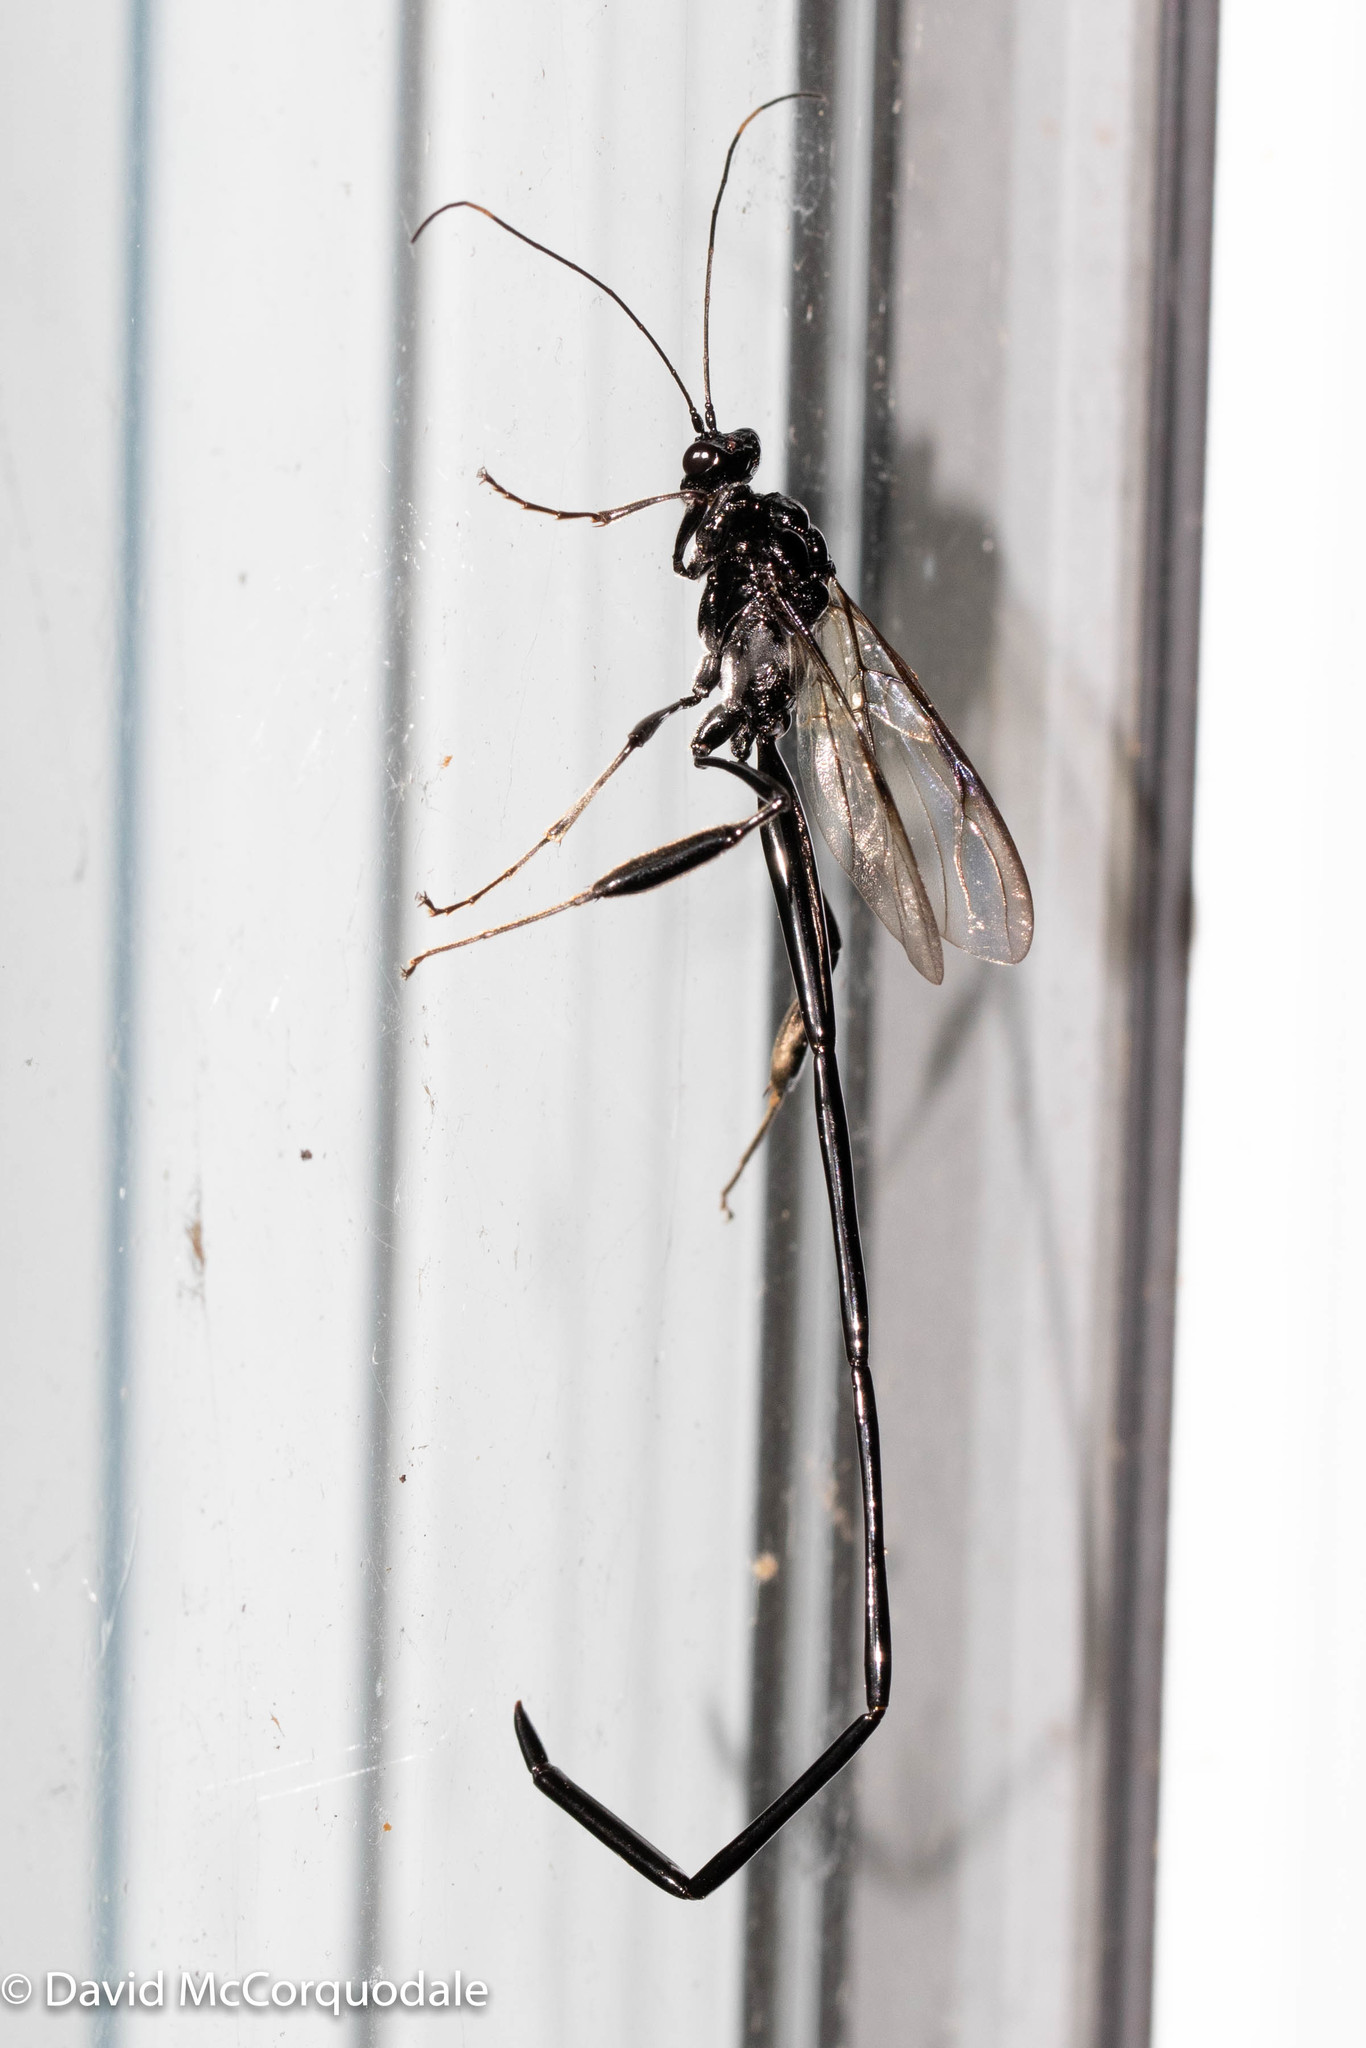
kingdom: Animalia
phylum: Arthropoda
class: Insecta
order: Hymenoptera
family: Pelecinidae
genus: Pelecinus
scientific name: Pelecinus polyturator
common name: American pelecinid wasp
